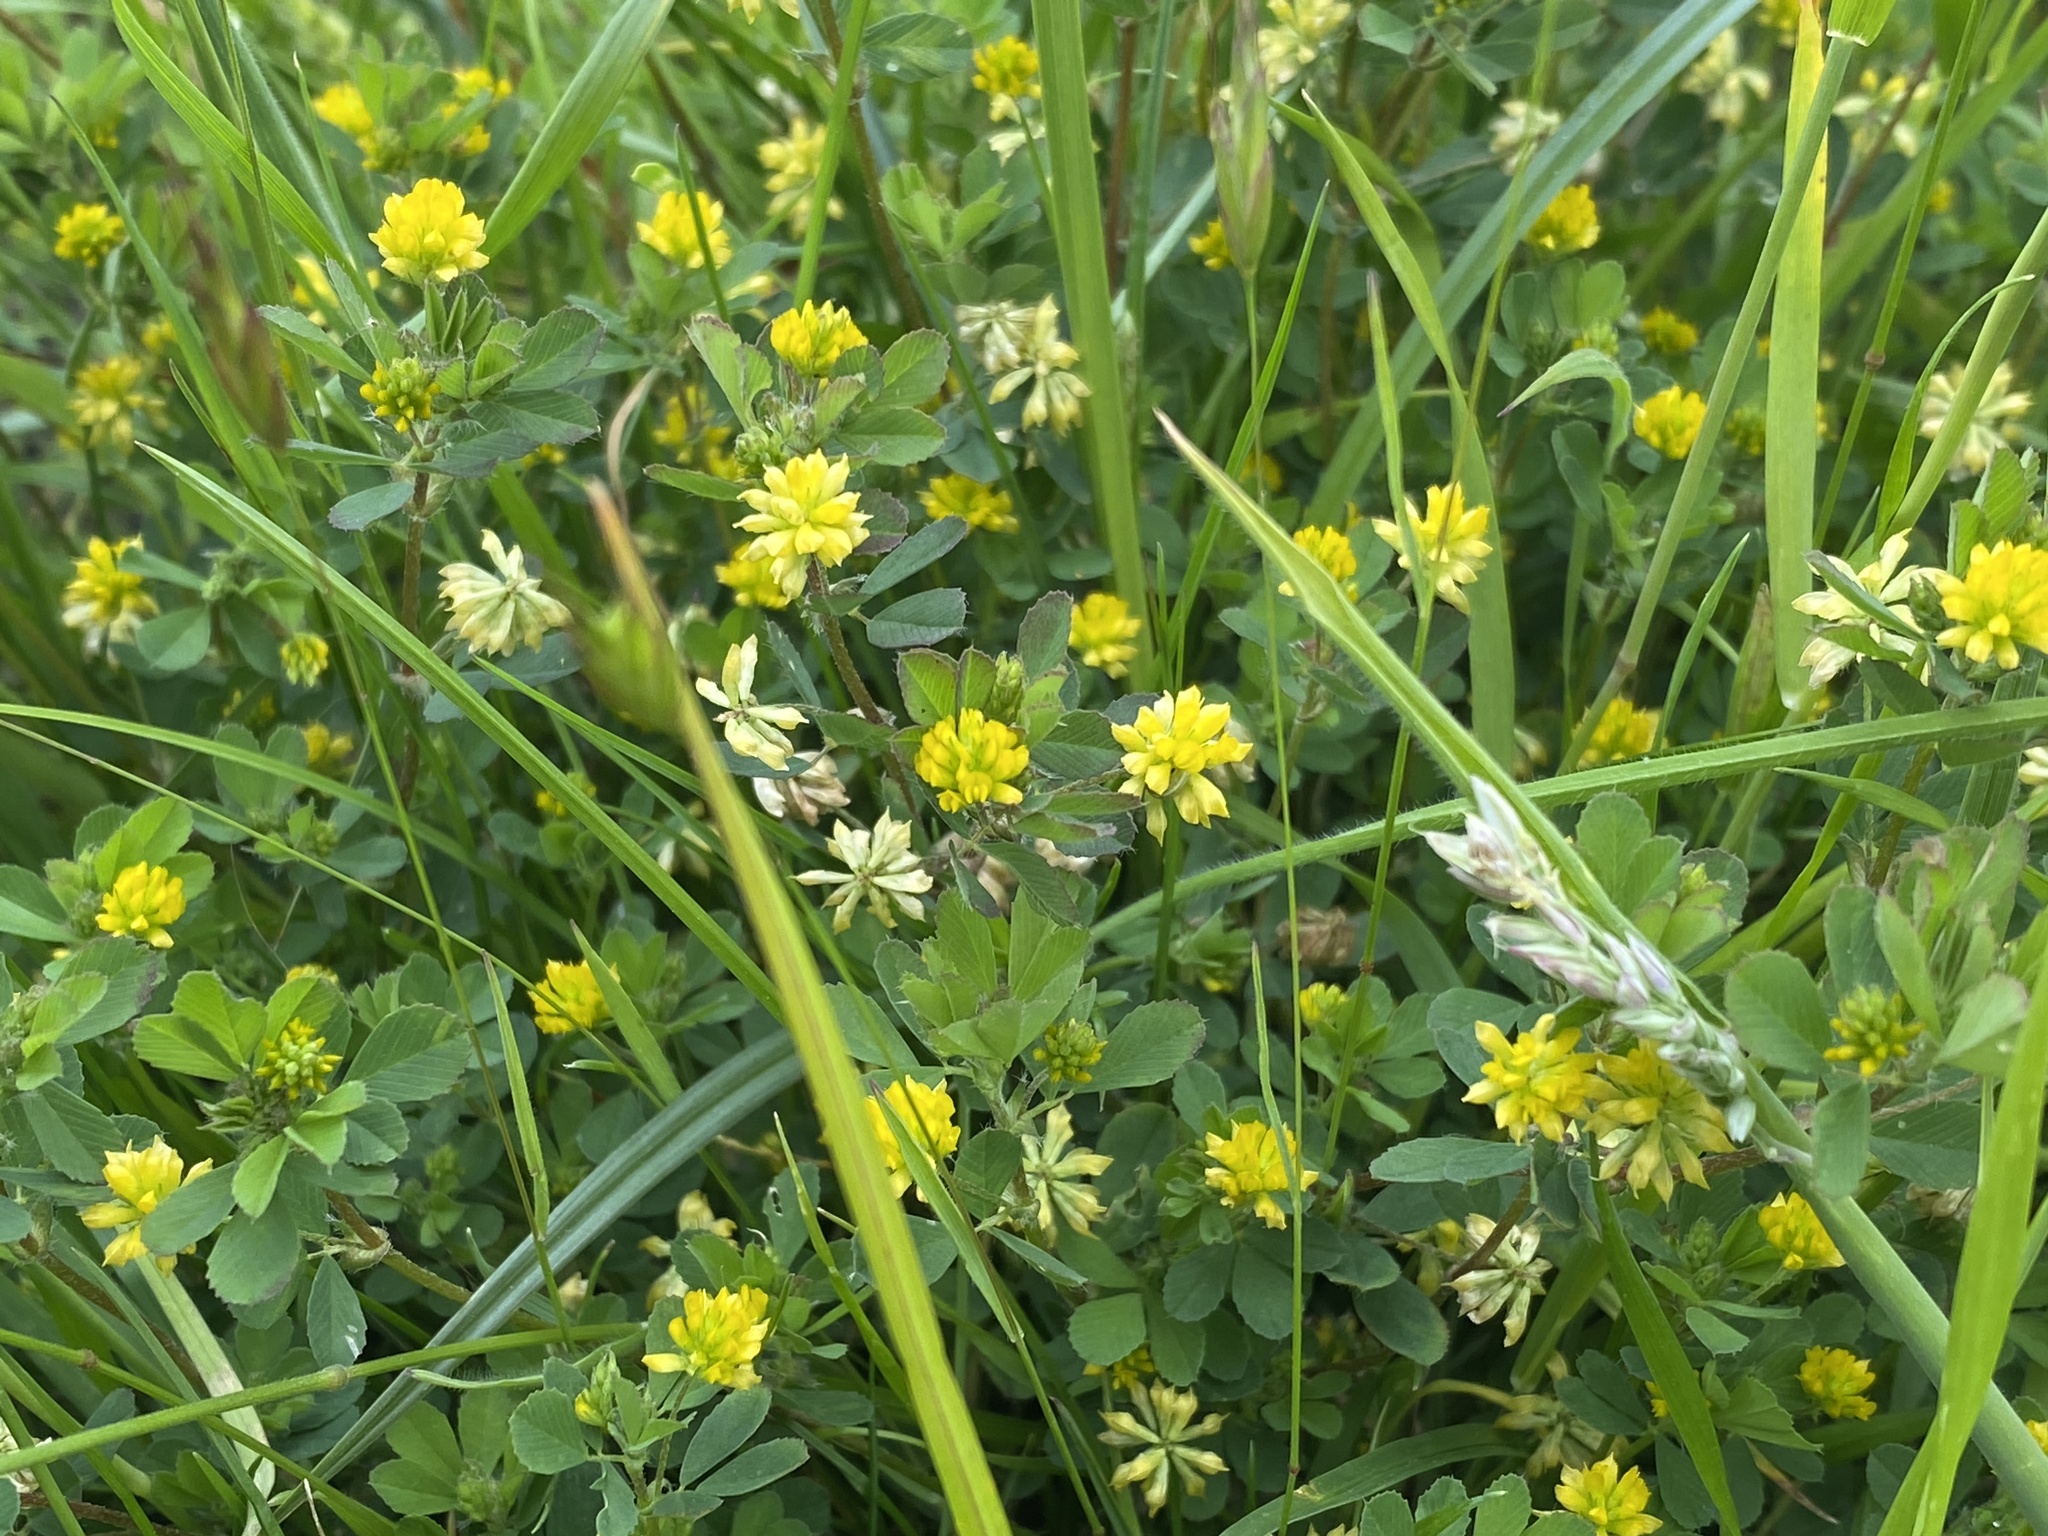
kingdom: Plantae
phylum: Tracheophyta
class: Magnoliopsida
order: Fabales
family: Fabaceae
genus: Trifolium
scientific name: Trifolium dubium
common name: Suckling clover
